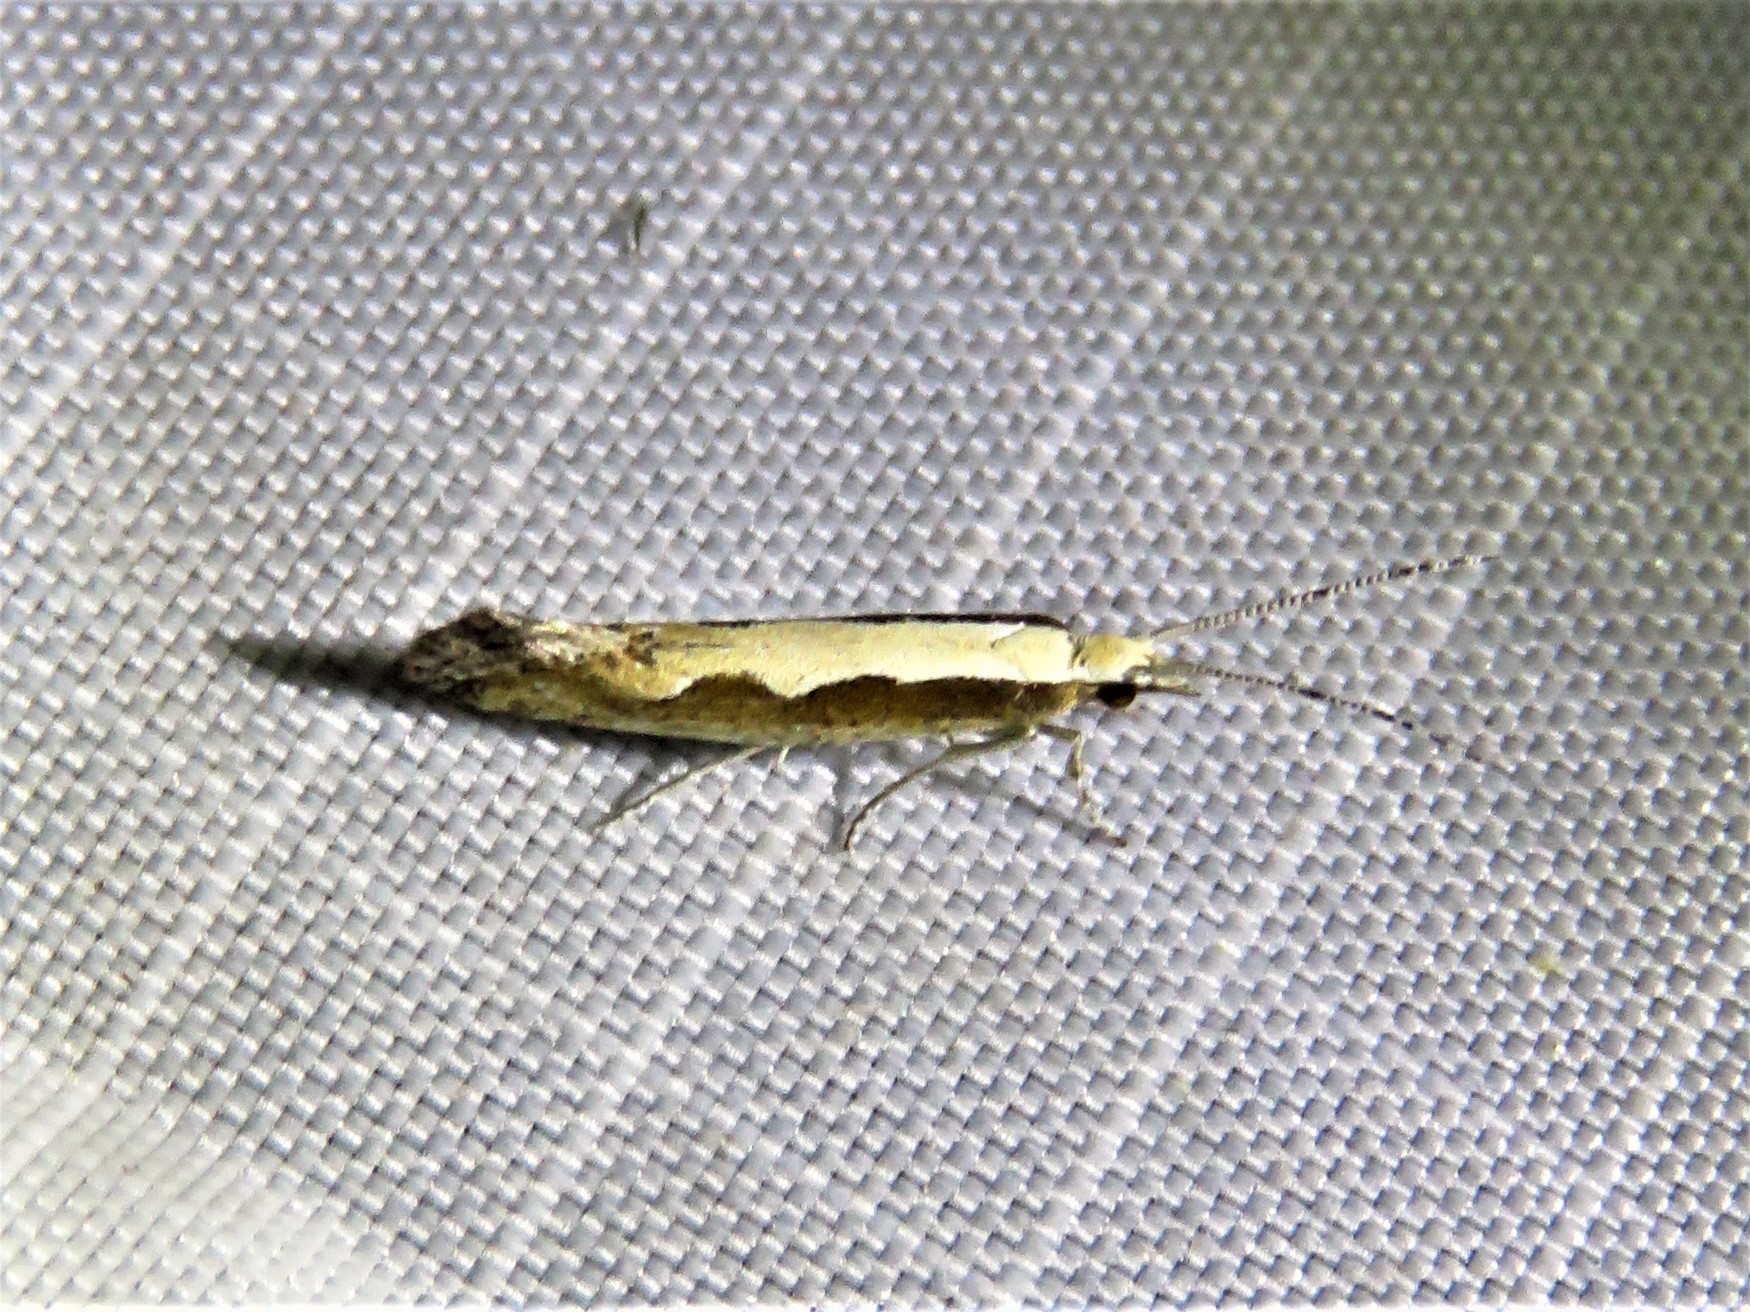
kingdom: Animalia
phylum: Arthropoda
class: Insecta
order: Lepidoptera
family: Plutellidae
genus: Plutella
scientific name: Plutella xylostella
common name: Diamond-back moth
